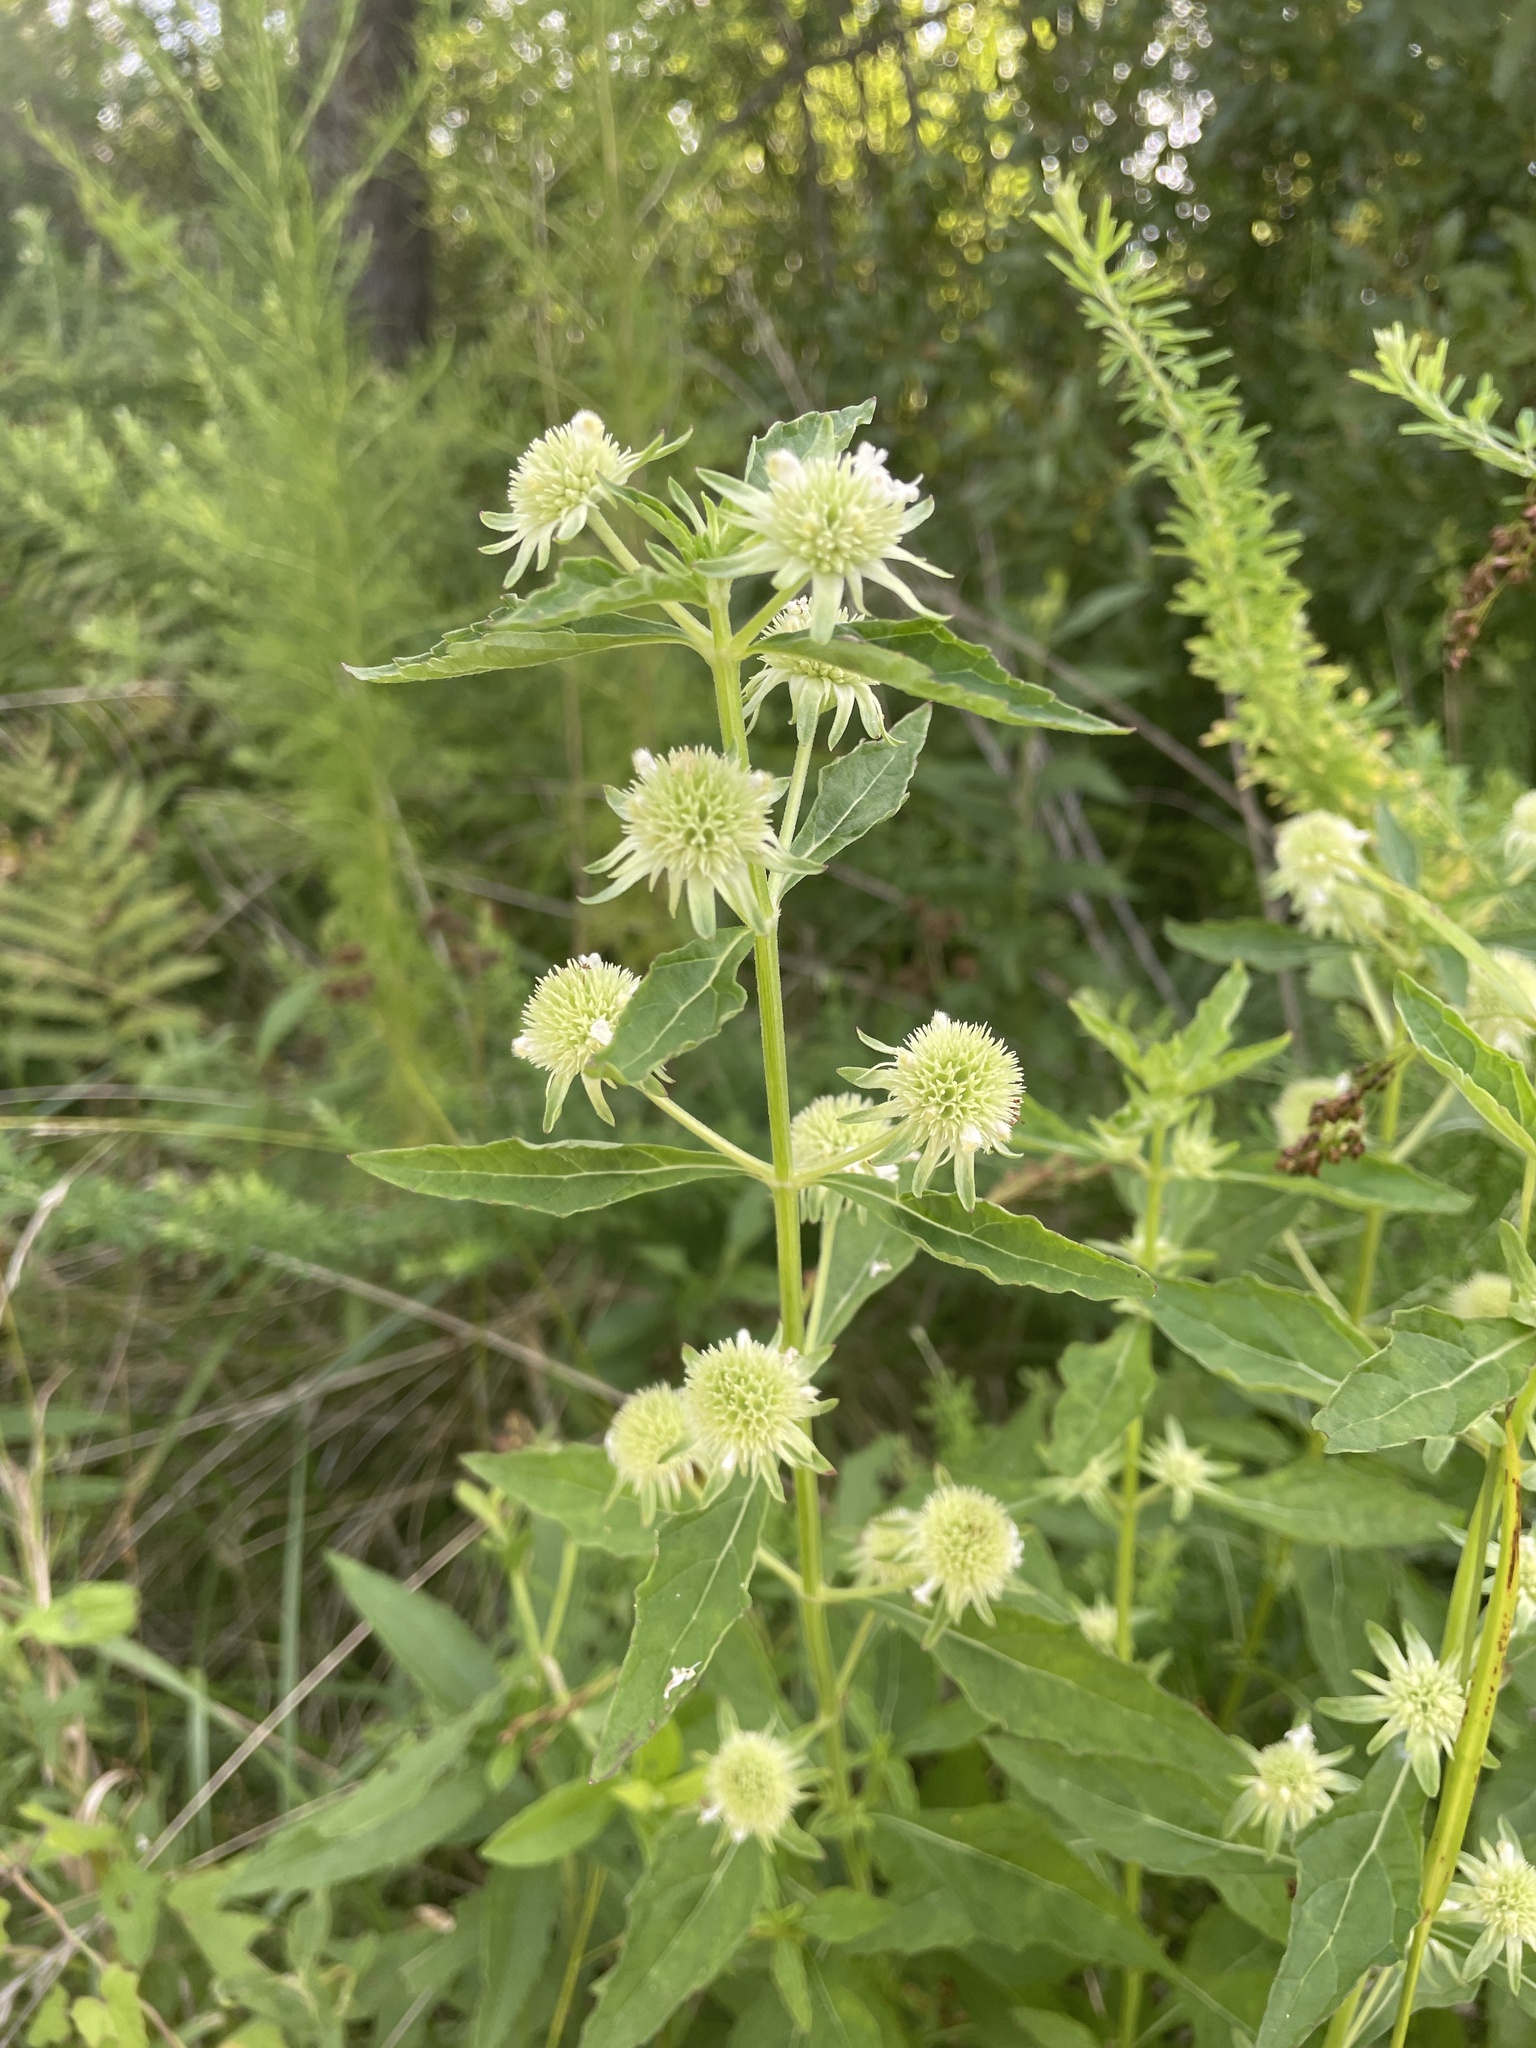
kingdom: Plantae
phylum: Tracheophyta
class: Magnoliopsida
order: Lamiales
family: Lamiaceae
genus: Hyptis
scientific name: Hyptis alata
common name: Cluster bush-mint
